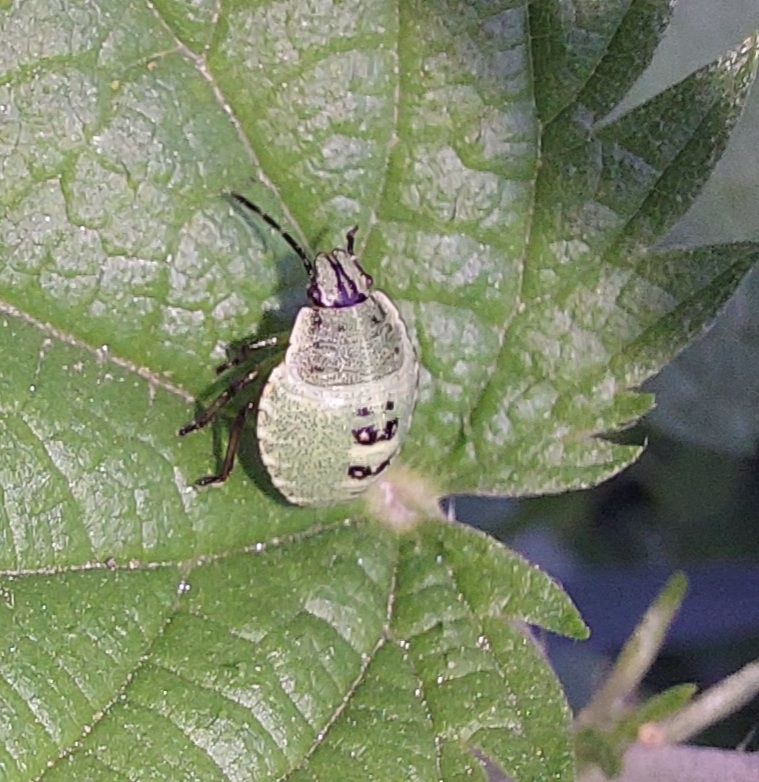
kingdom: Animalia
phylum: Arthropoda
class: Insecta
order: Hemiptera
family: Pentatomidae
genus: Palomena
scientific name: Palomena prasina
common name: Green shieldbug
